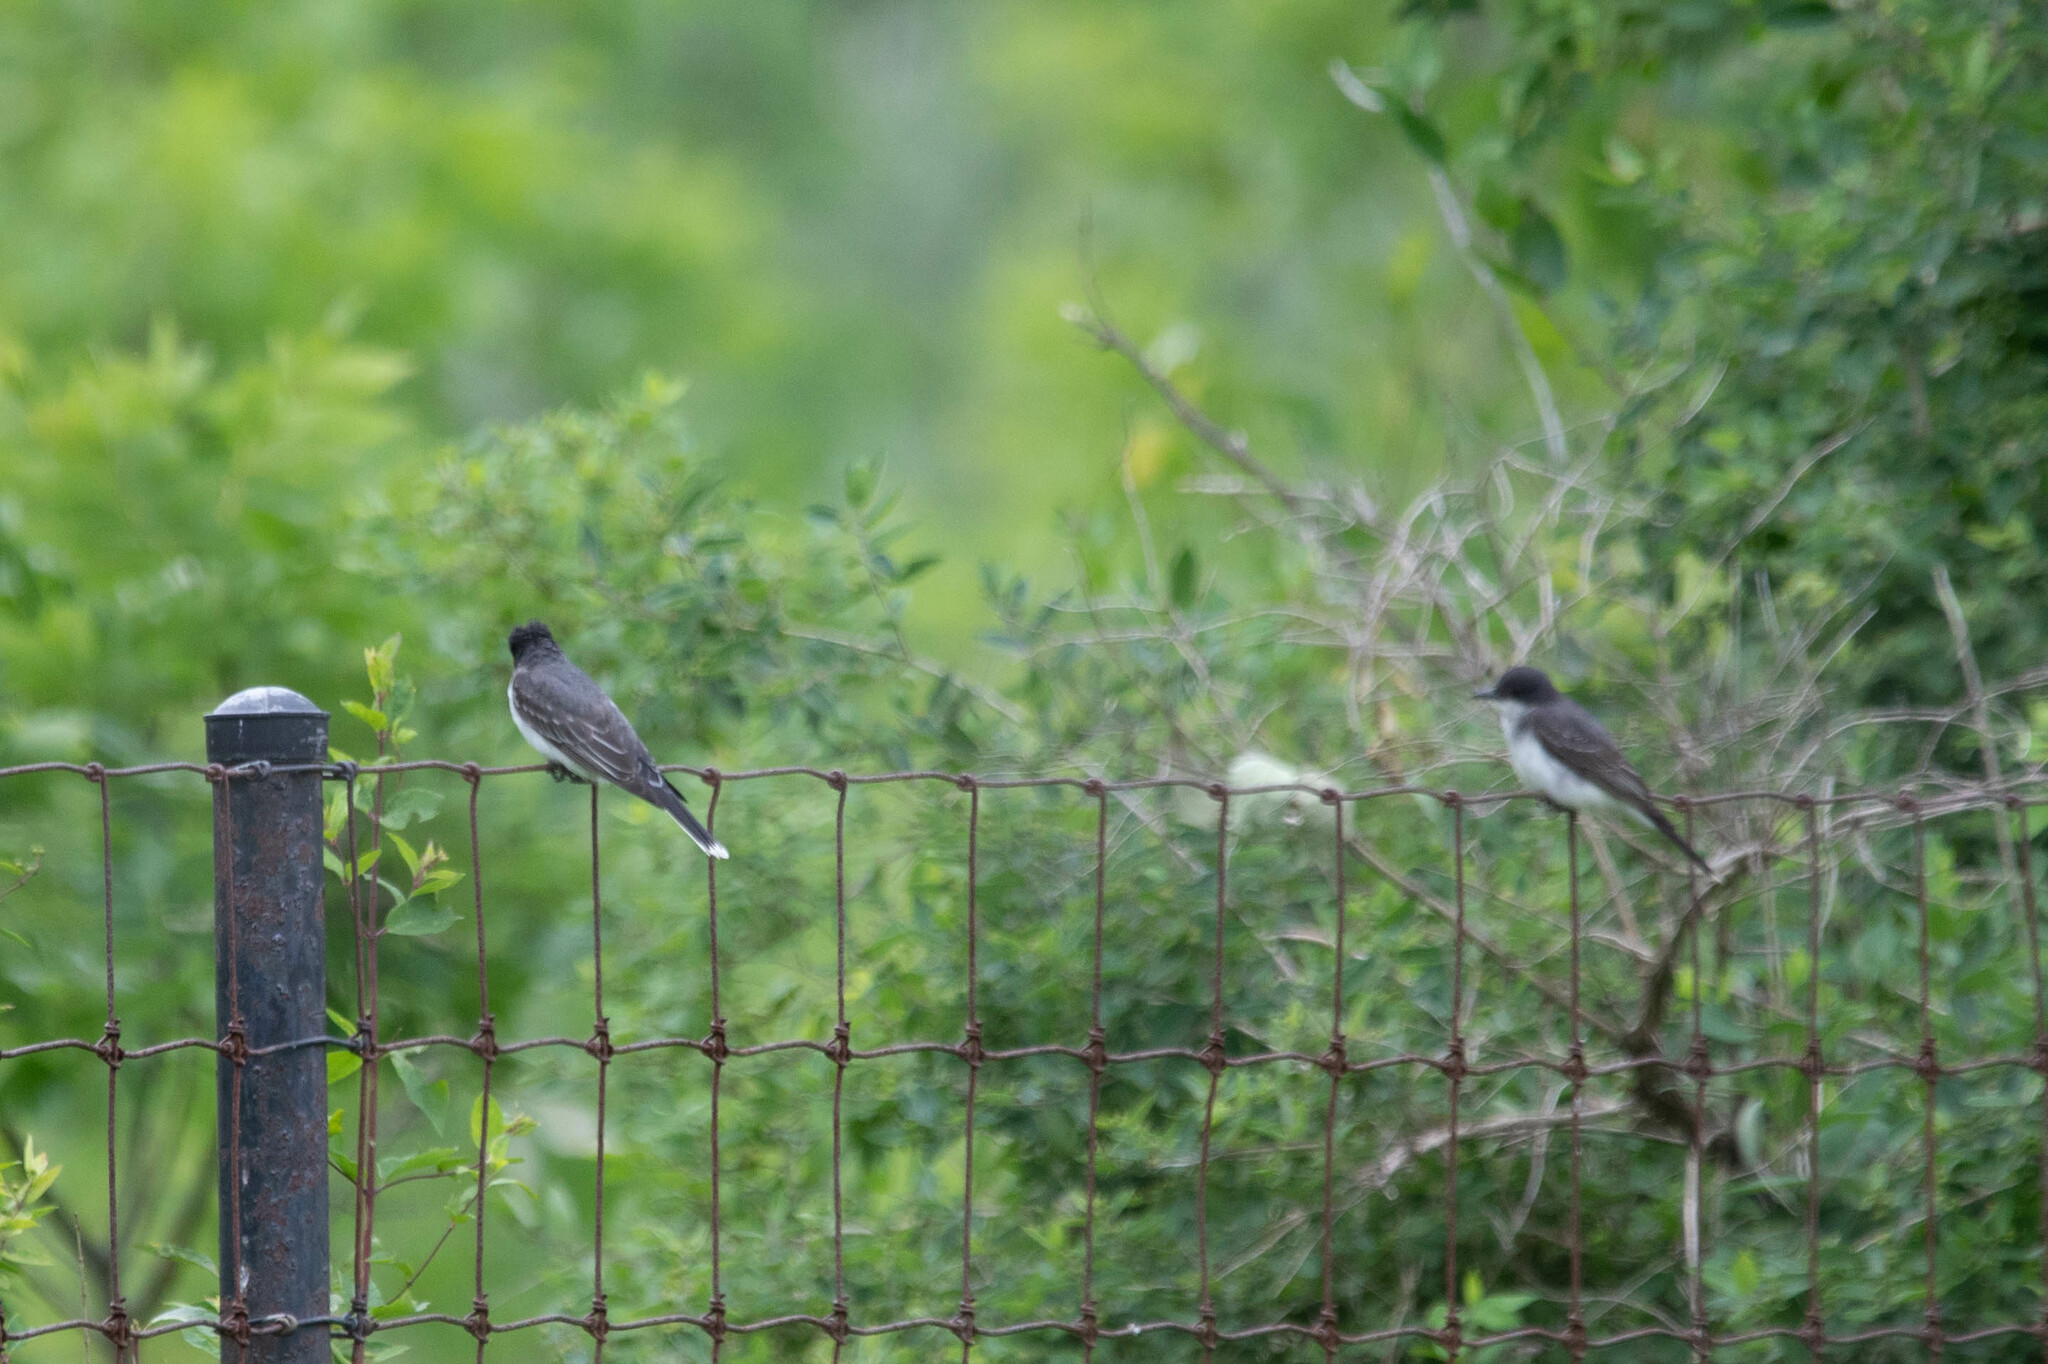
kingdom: Animalia
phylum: Chordata
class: Aves
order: Passeriformes
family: Tyrannidae
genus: Tyrannus
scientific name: Tyrannus tyrannus
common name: Eastern kingbird
